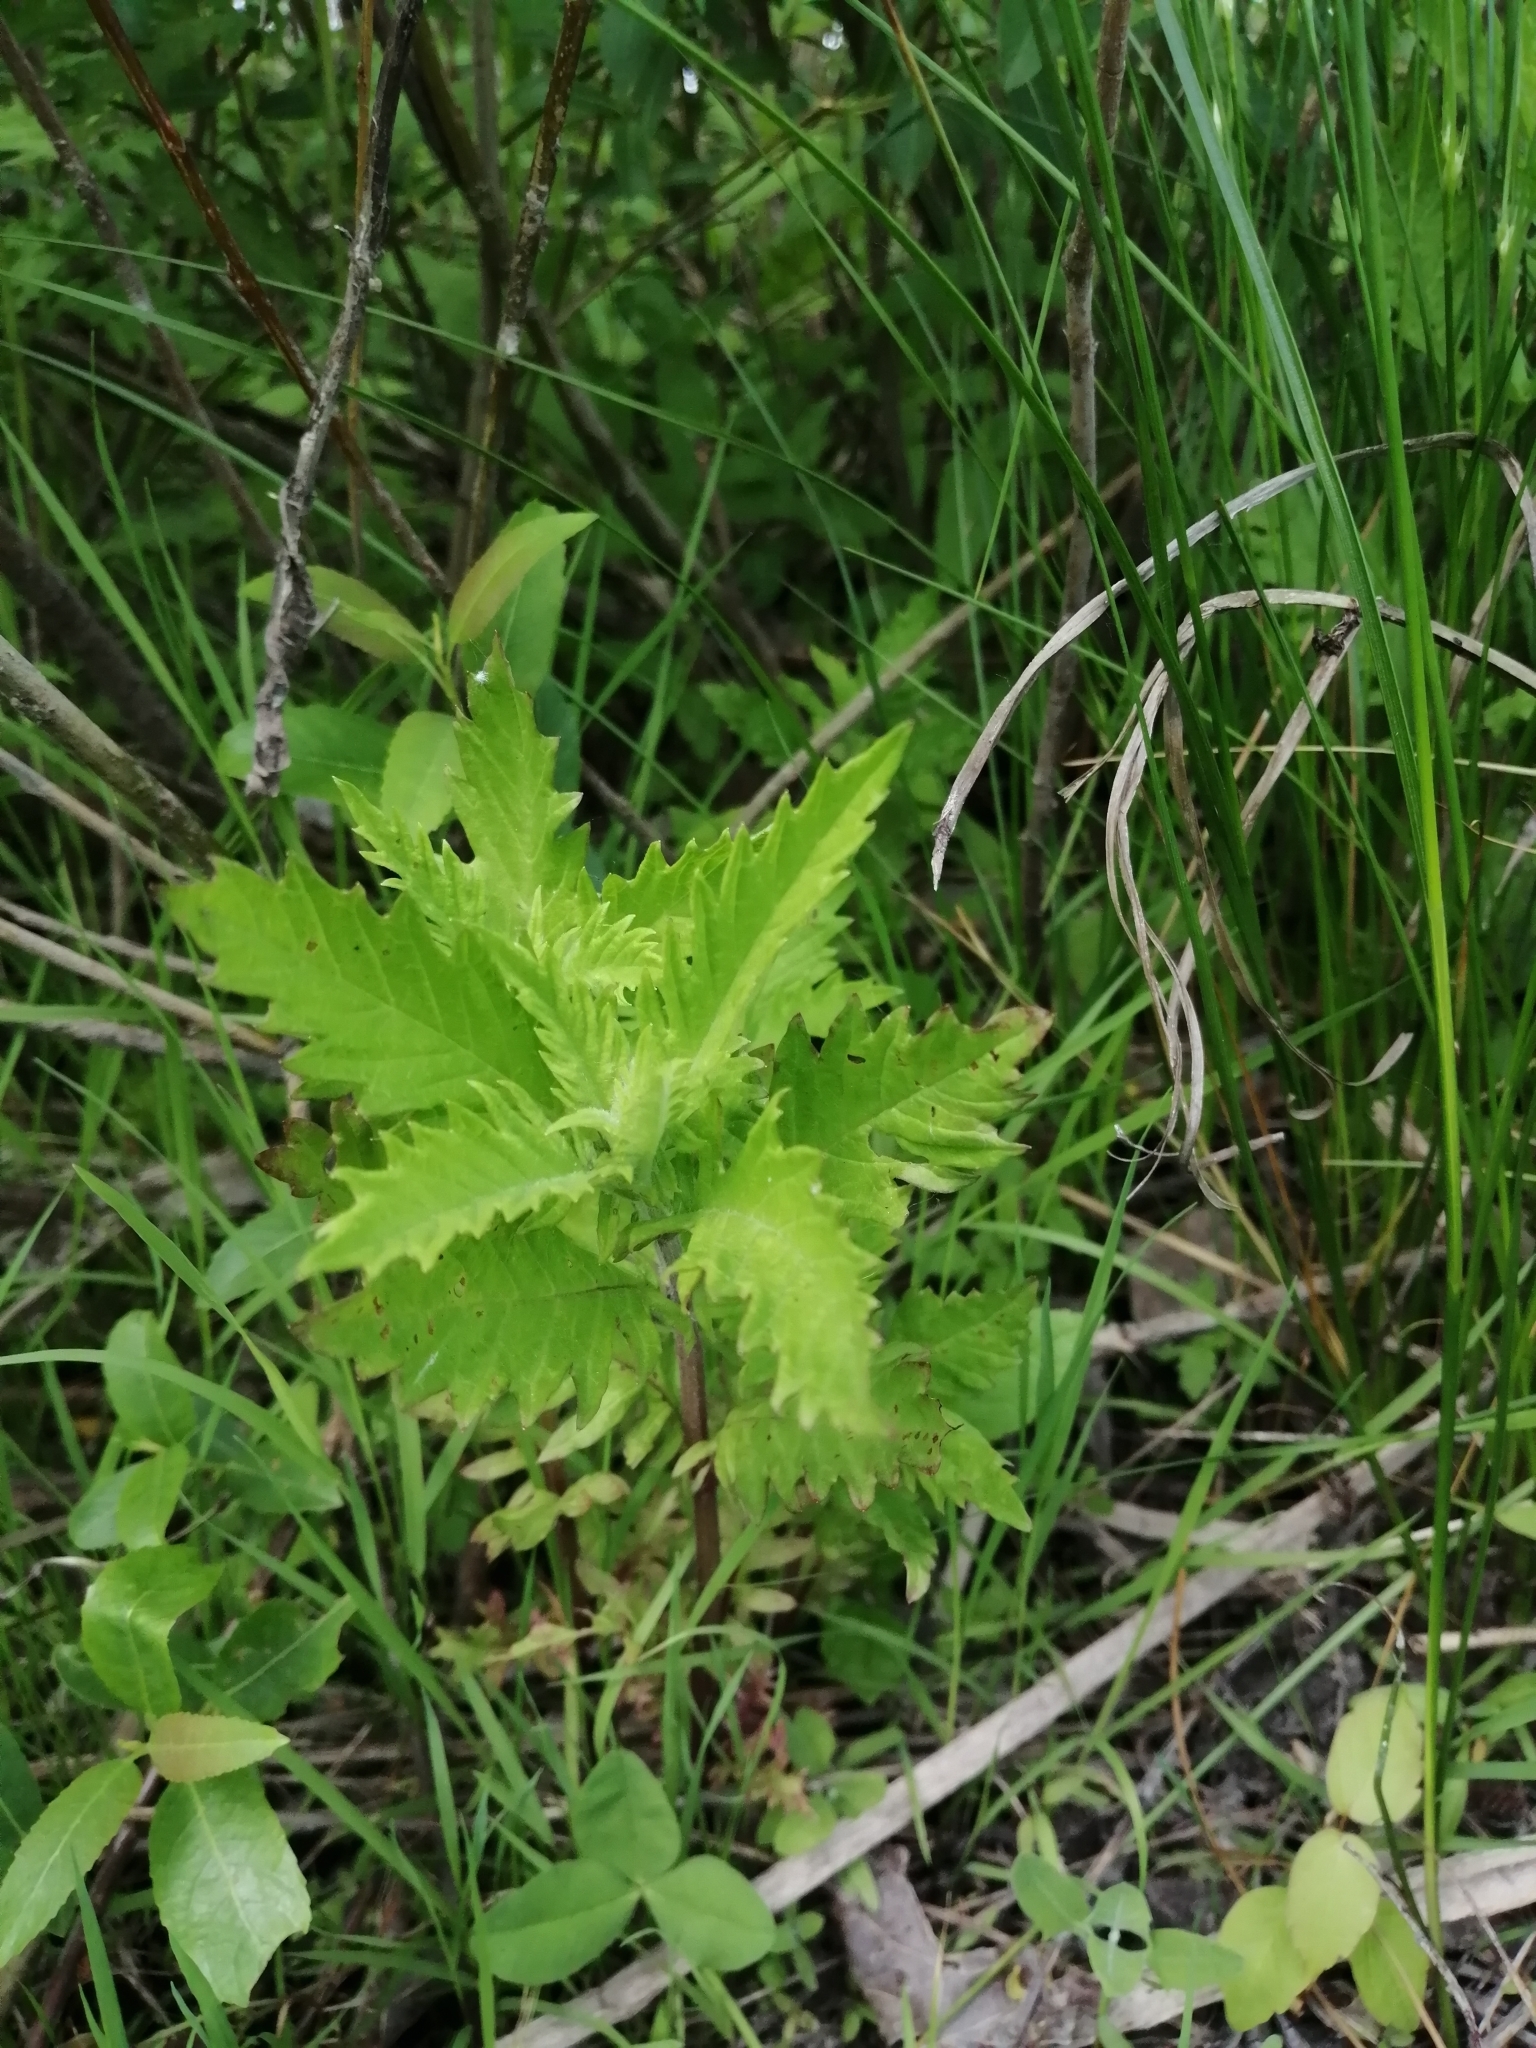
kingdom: Plantae
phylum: Tracheophyta
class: Magnoliopsida
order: Lamiales
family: Lamiaceae
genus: Lycopus
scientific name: Lycopus europaeus
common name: European bugleweed
